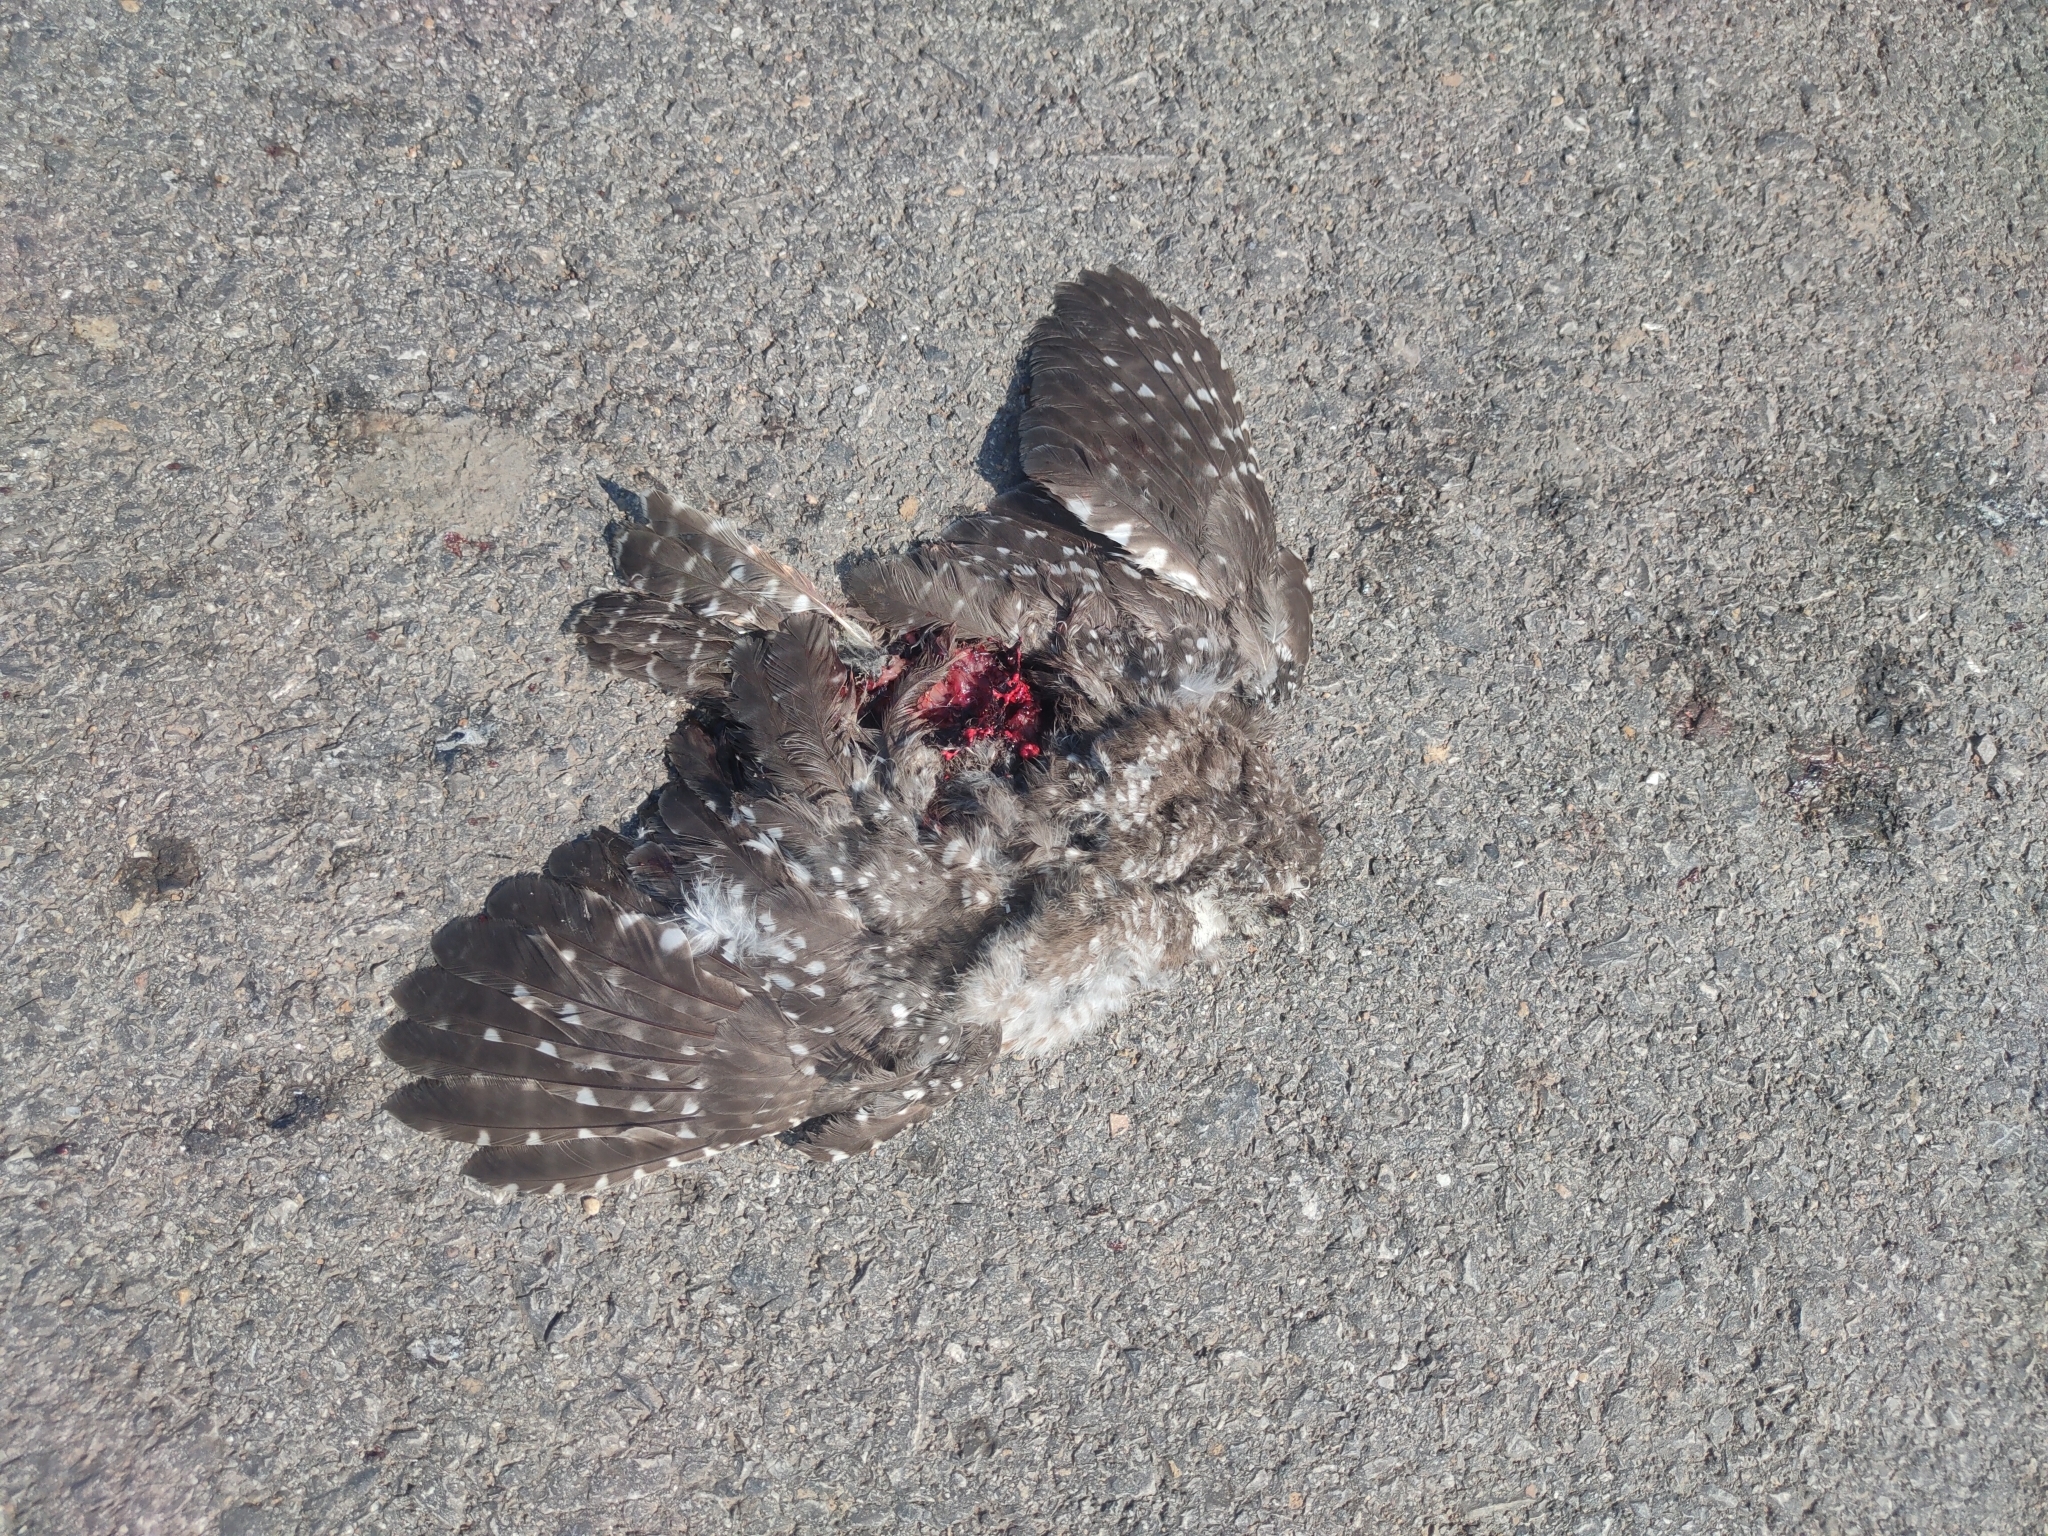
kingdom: Animalia
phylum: Chordata
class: Aves
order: Strigiformes
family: Strigidae
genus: Athene
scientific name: Athene brama
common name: Spotted owlet
